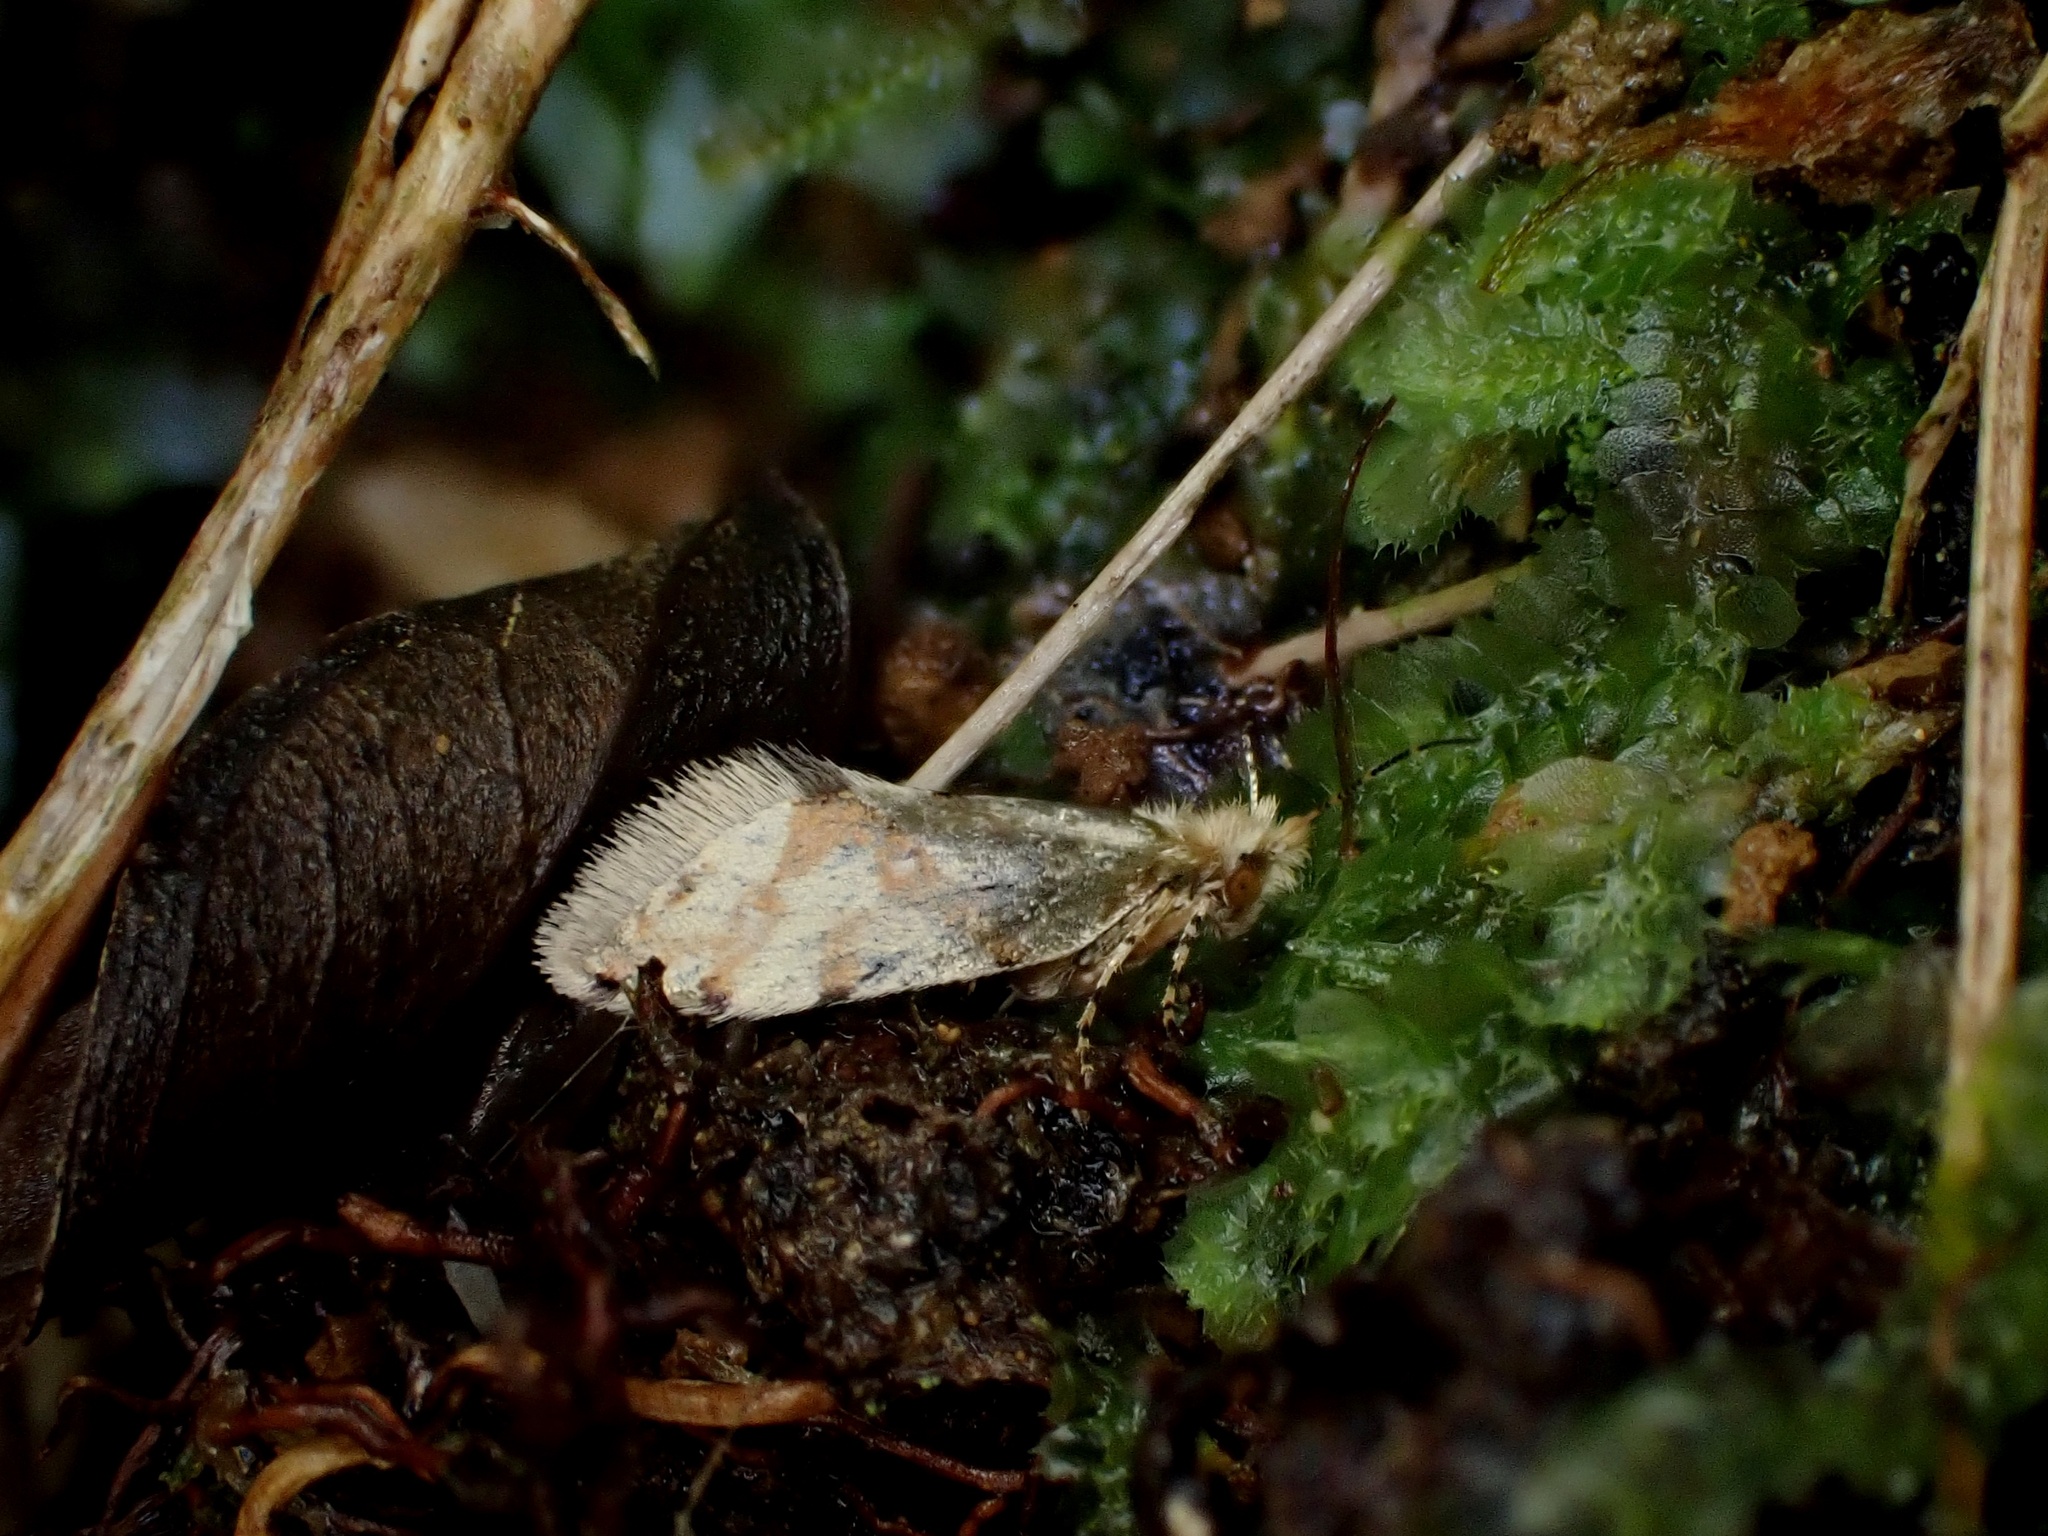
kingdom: Animalia
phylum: Arthropoda
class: Insecta
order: Lepidoptera
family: Micropterigidae
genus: Sabatinca
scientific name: Sabatinca chalcophanes
